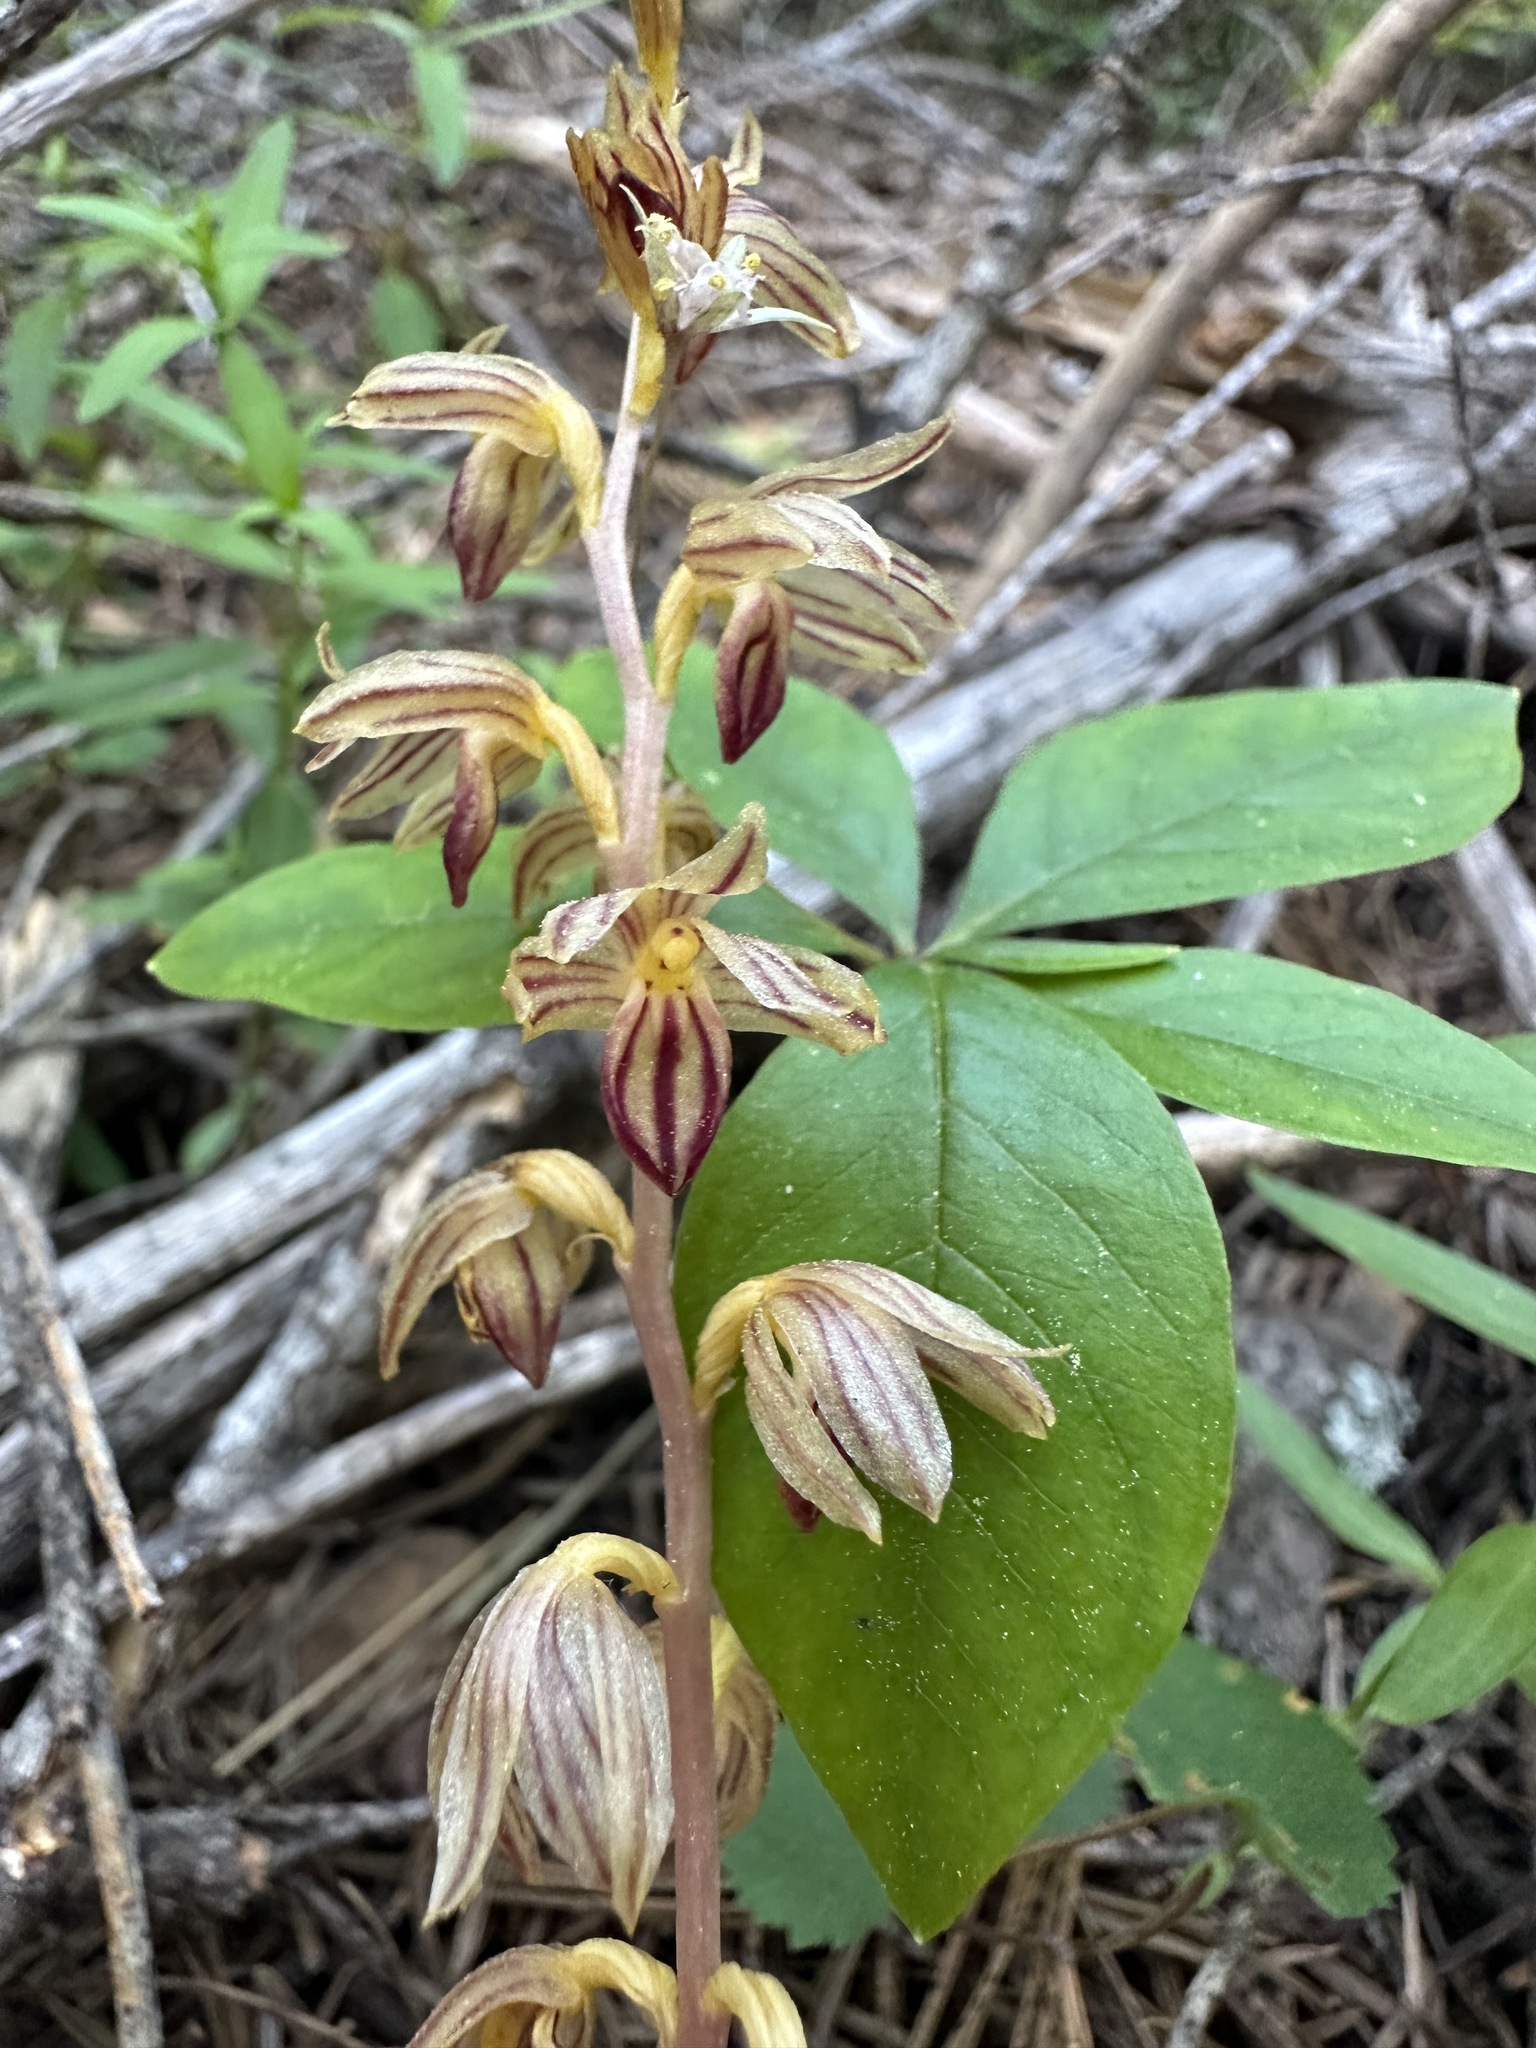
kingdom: Plantae
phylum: Tracheophyta
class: Liliopsida
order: Asparagales
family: Orchidaceae
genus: Corallorhiza
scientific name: Corallorhiza striata
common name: Hooded coralroot
